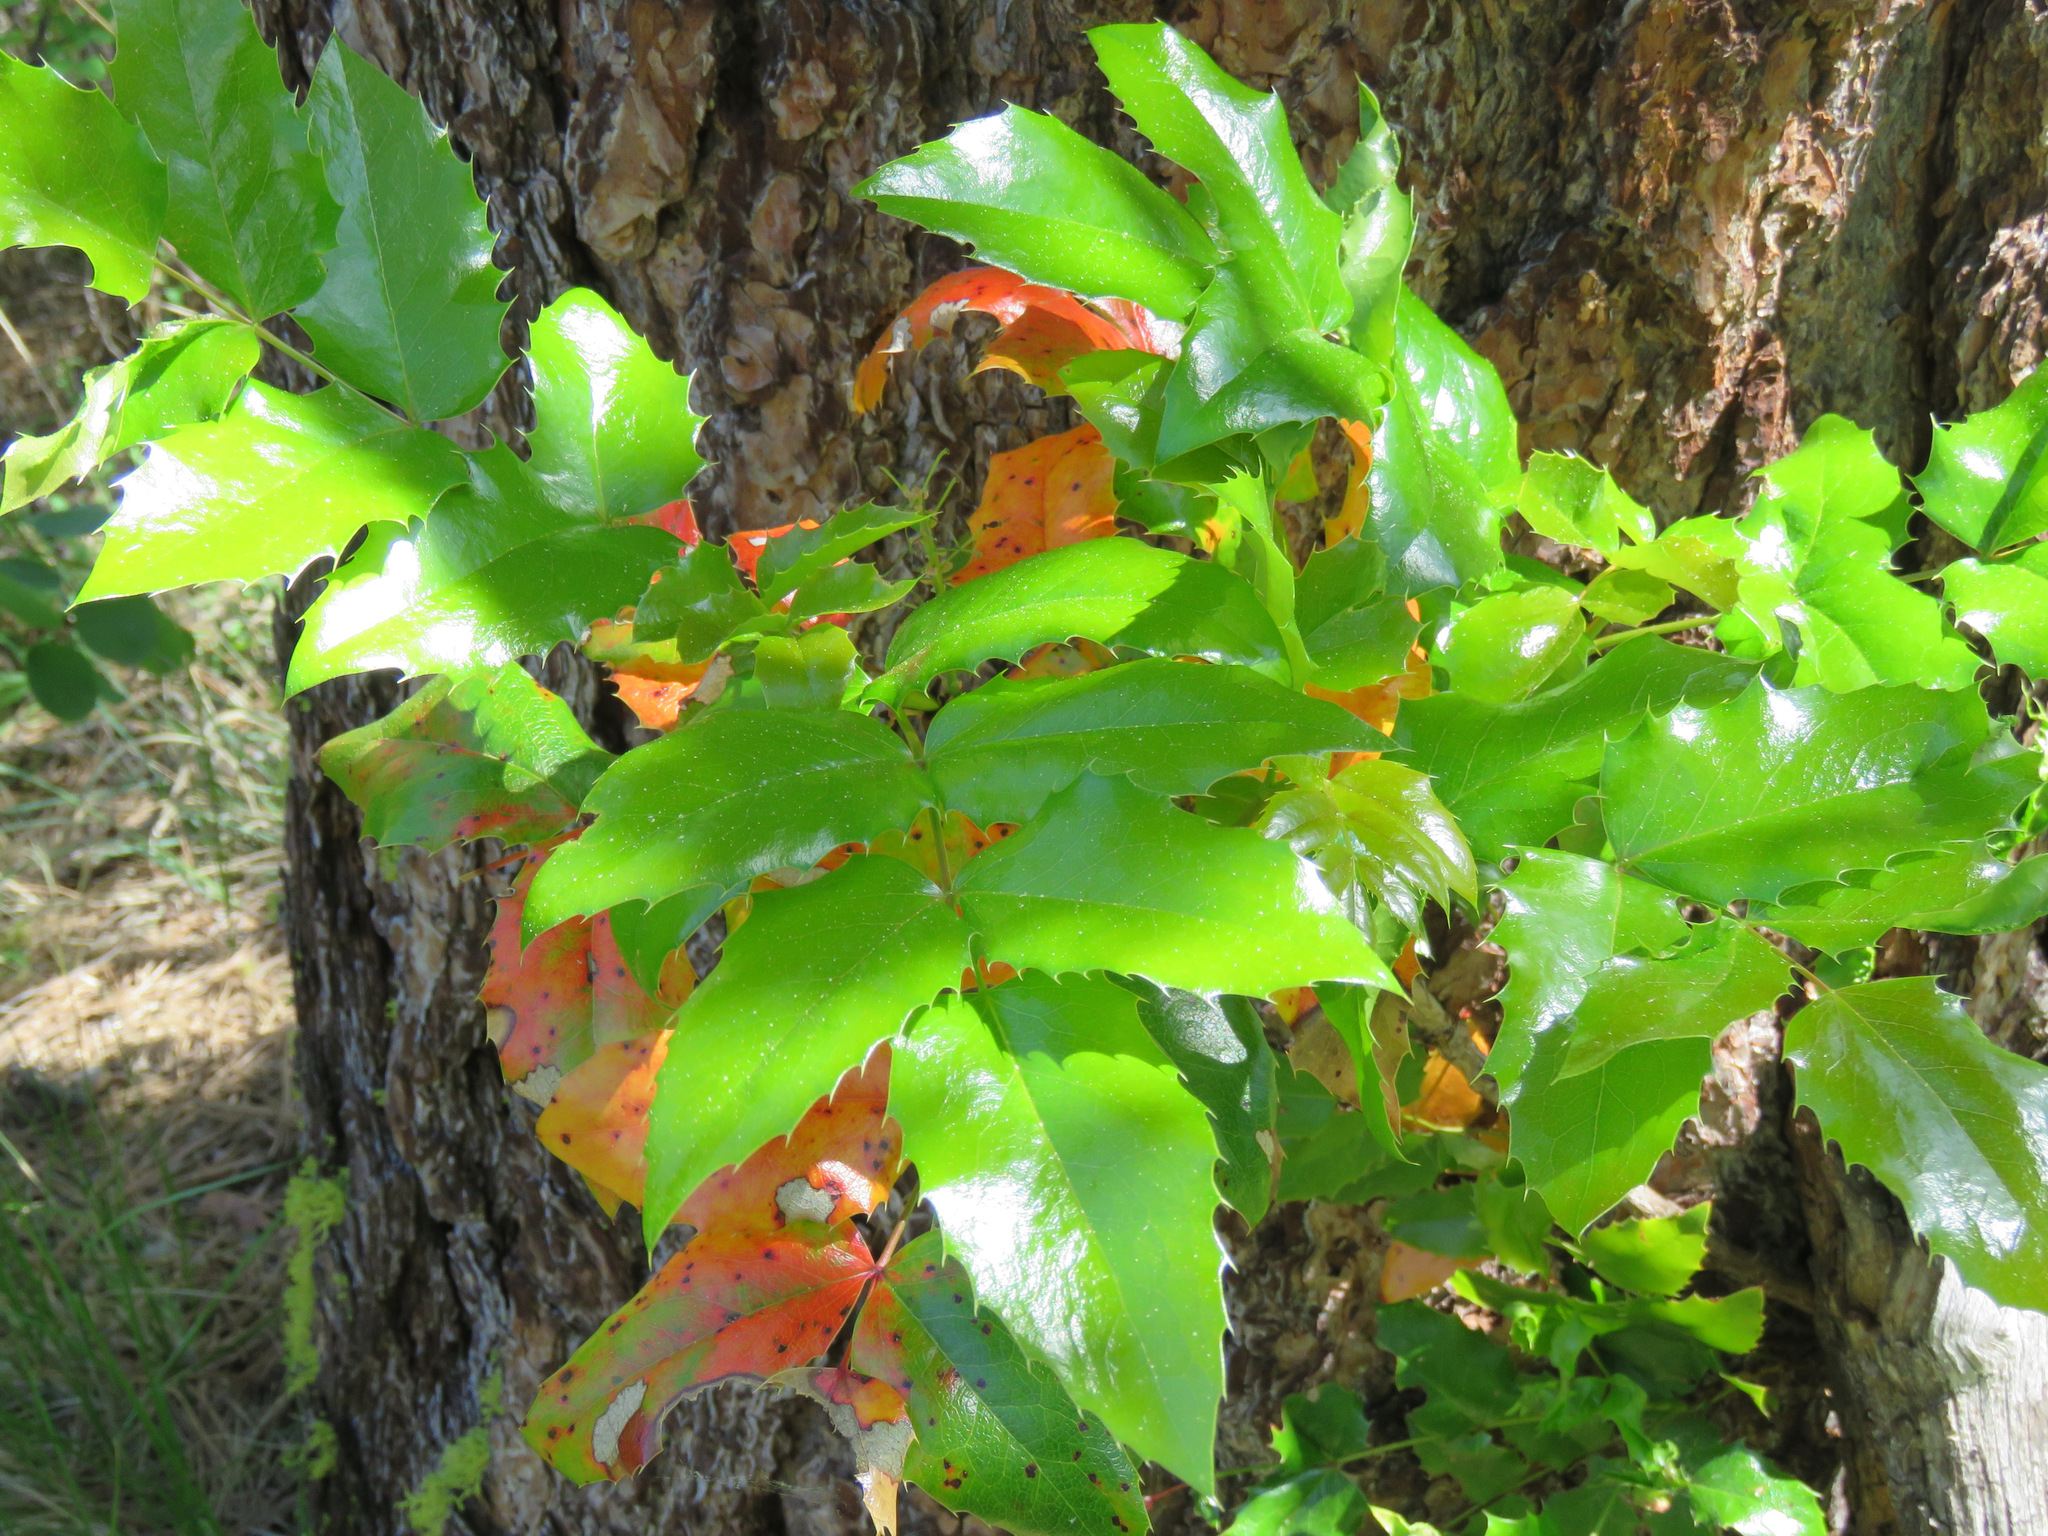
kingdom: Plantae
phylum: Tracheophyta
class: Magnoliopsida
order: Ranunculales
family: Berberidaceae
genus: Mahonia
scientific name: Mahonia aquifolium
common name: Oregon-grape
